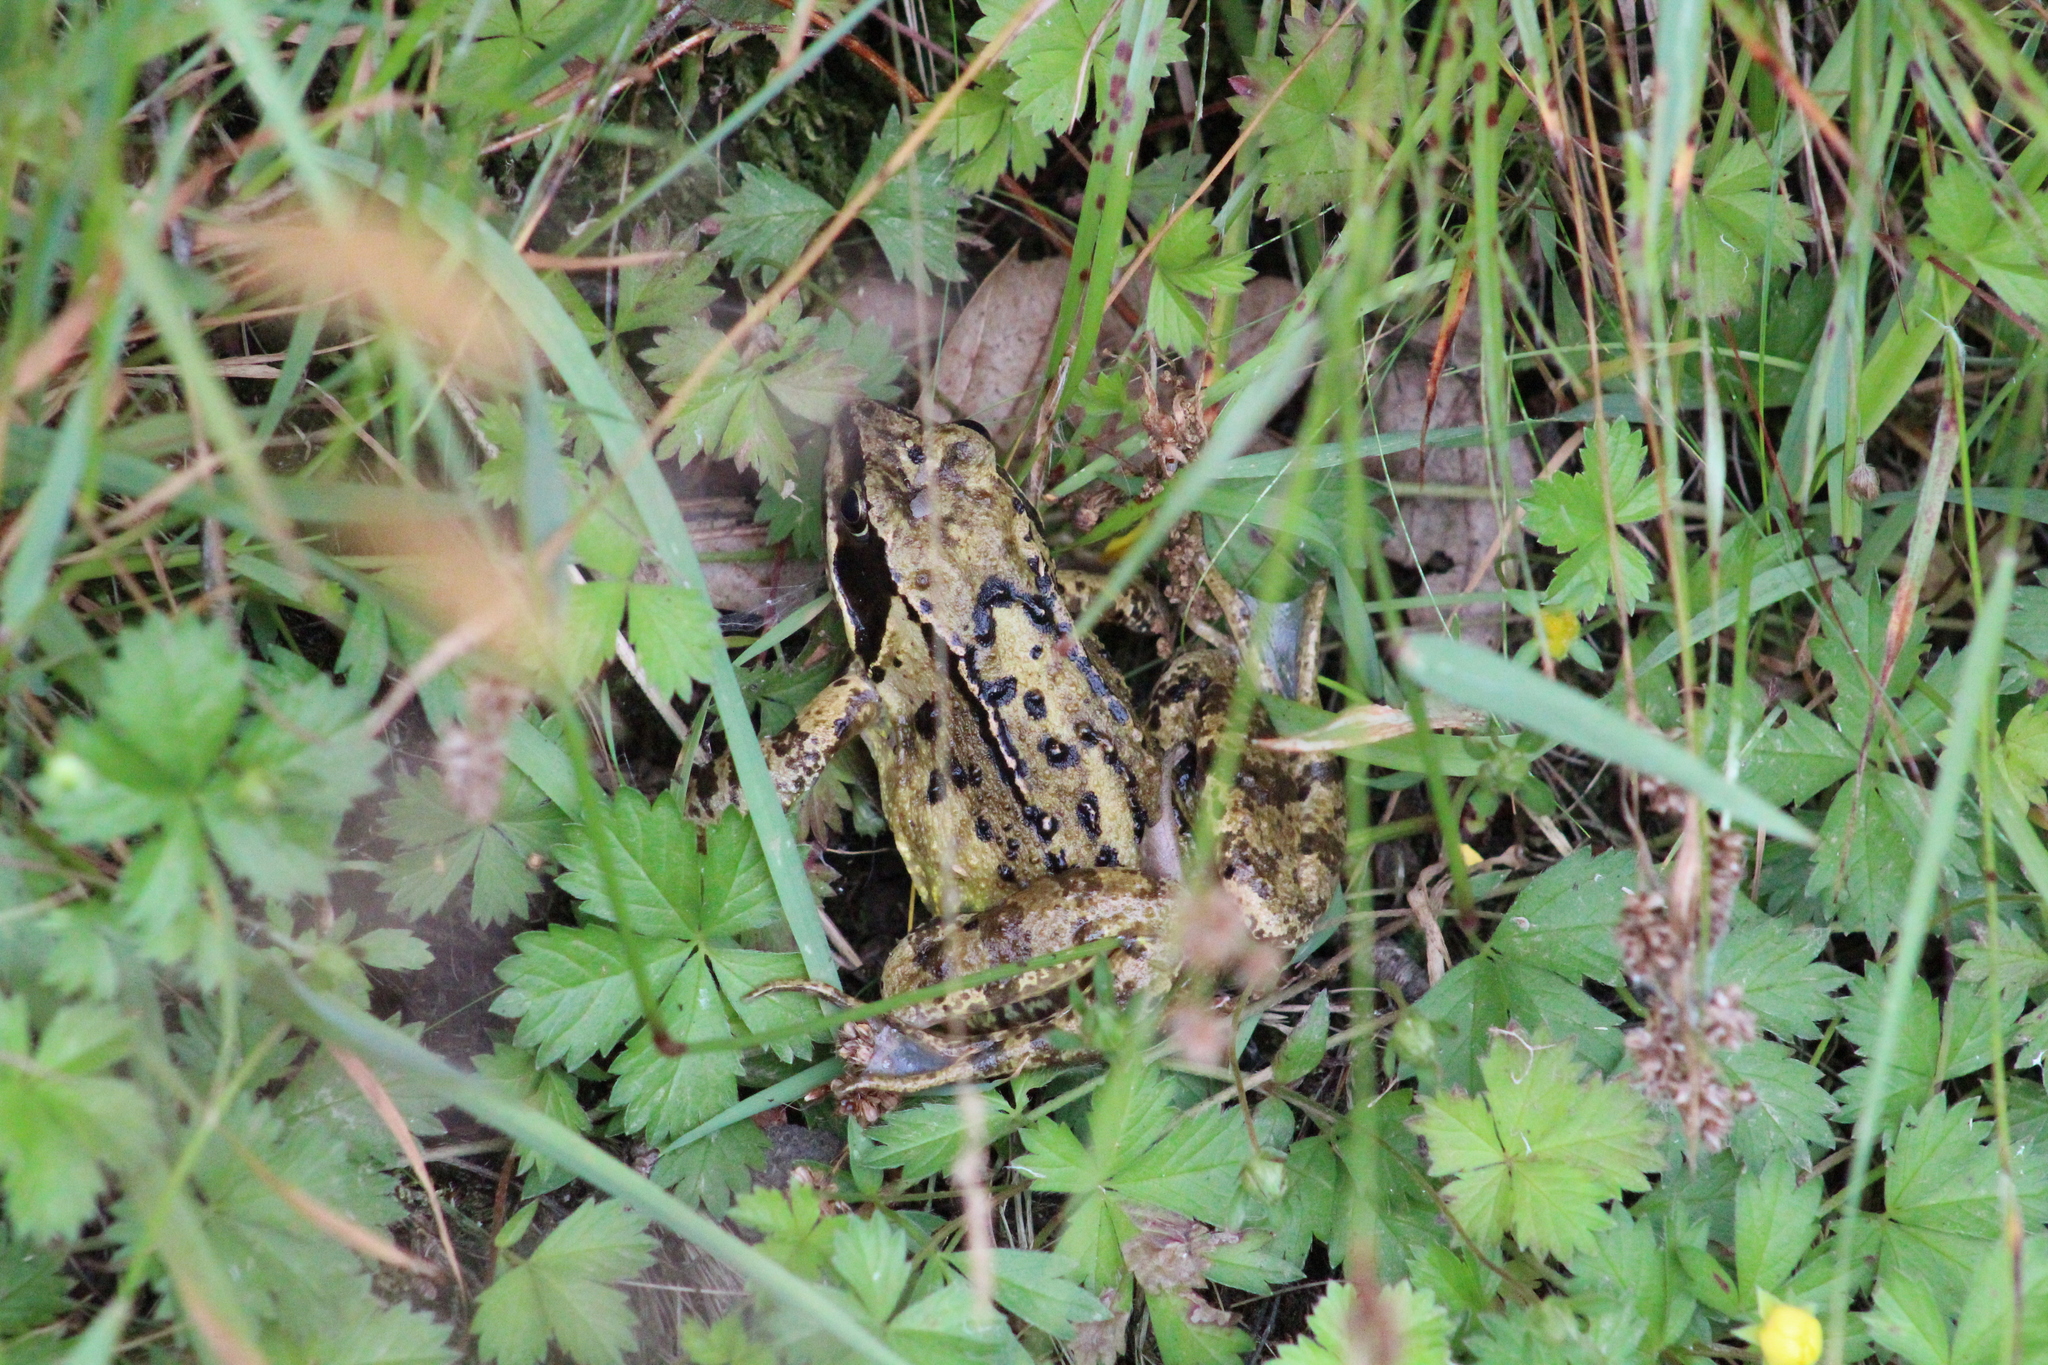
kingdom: Animalia
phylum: Chordata
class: Amphibia
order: Anura
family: Ranidae
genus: Rana
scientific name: Rana temporaria
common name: Common frog
